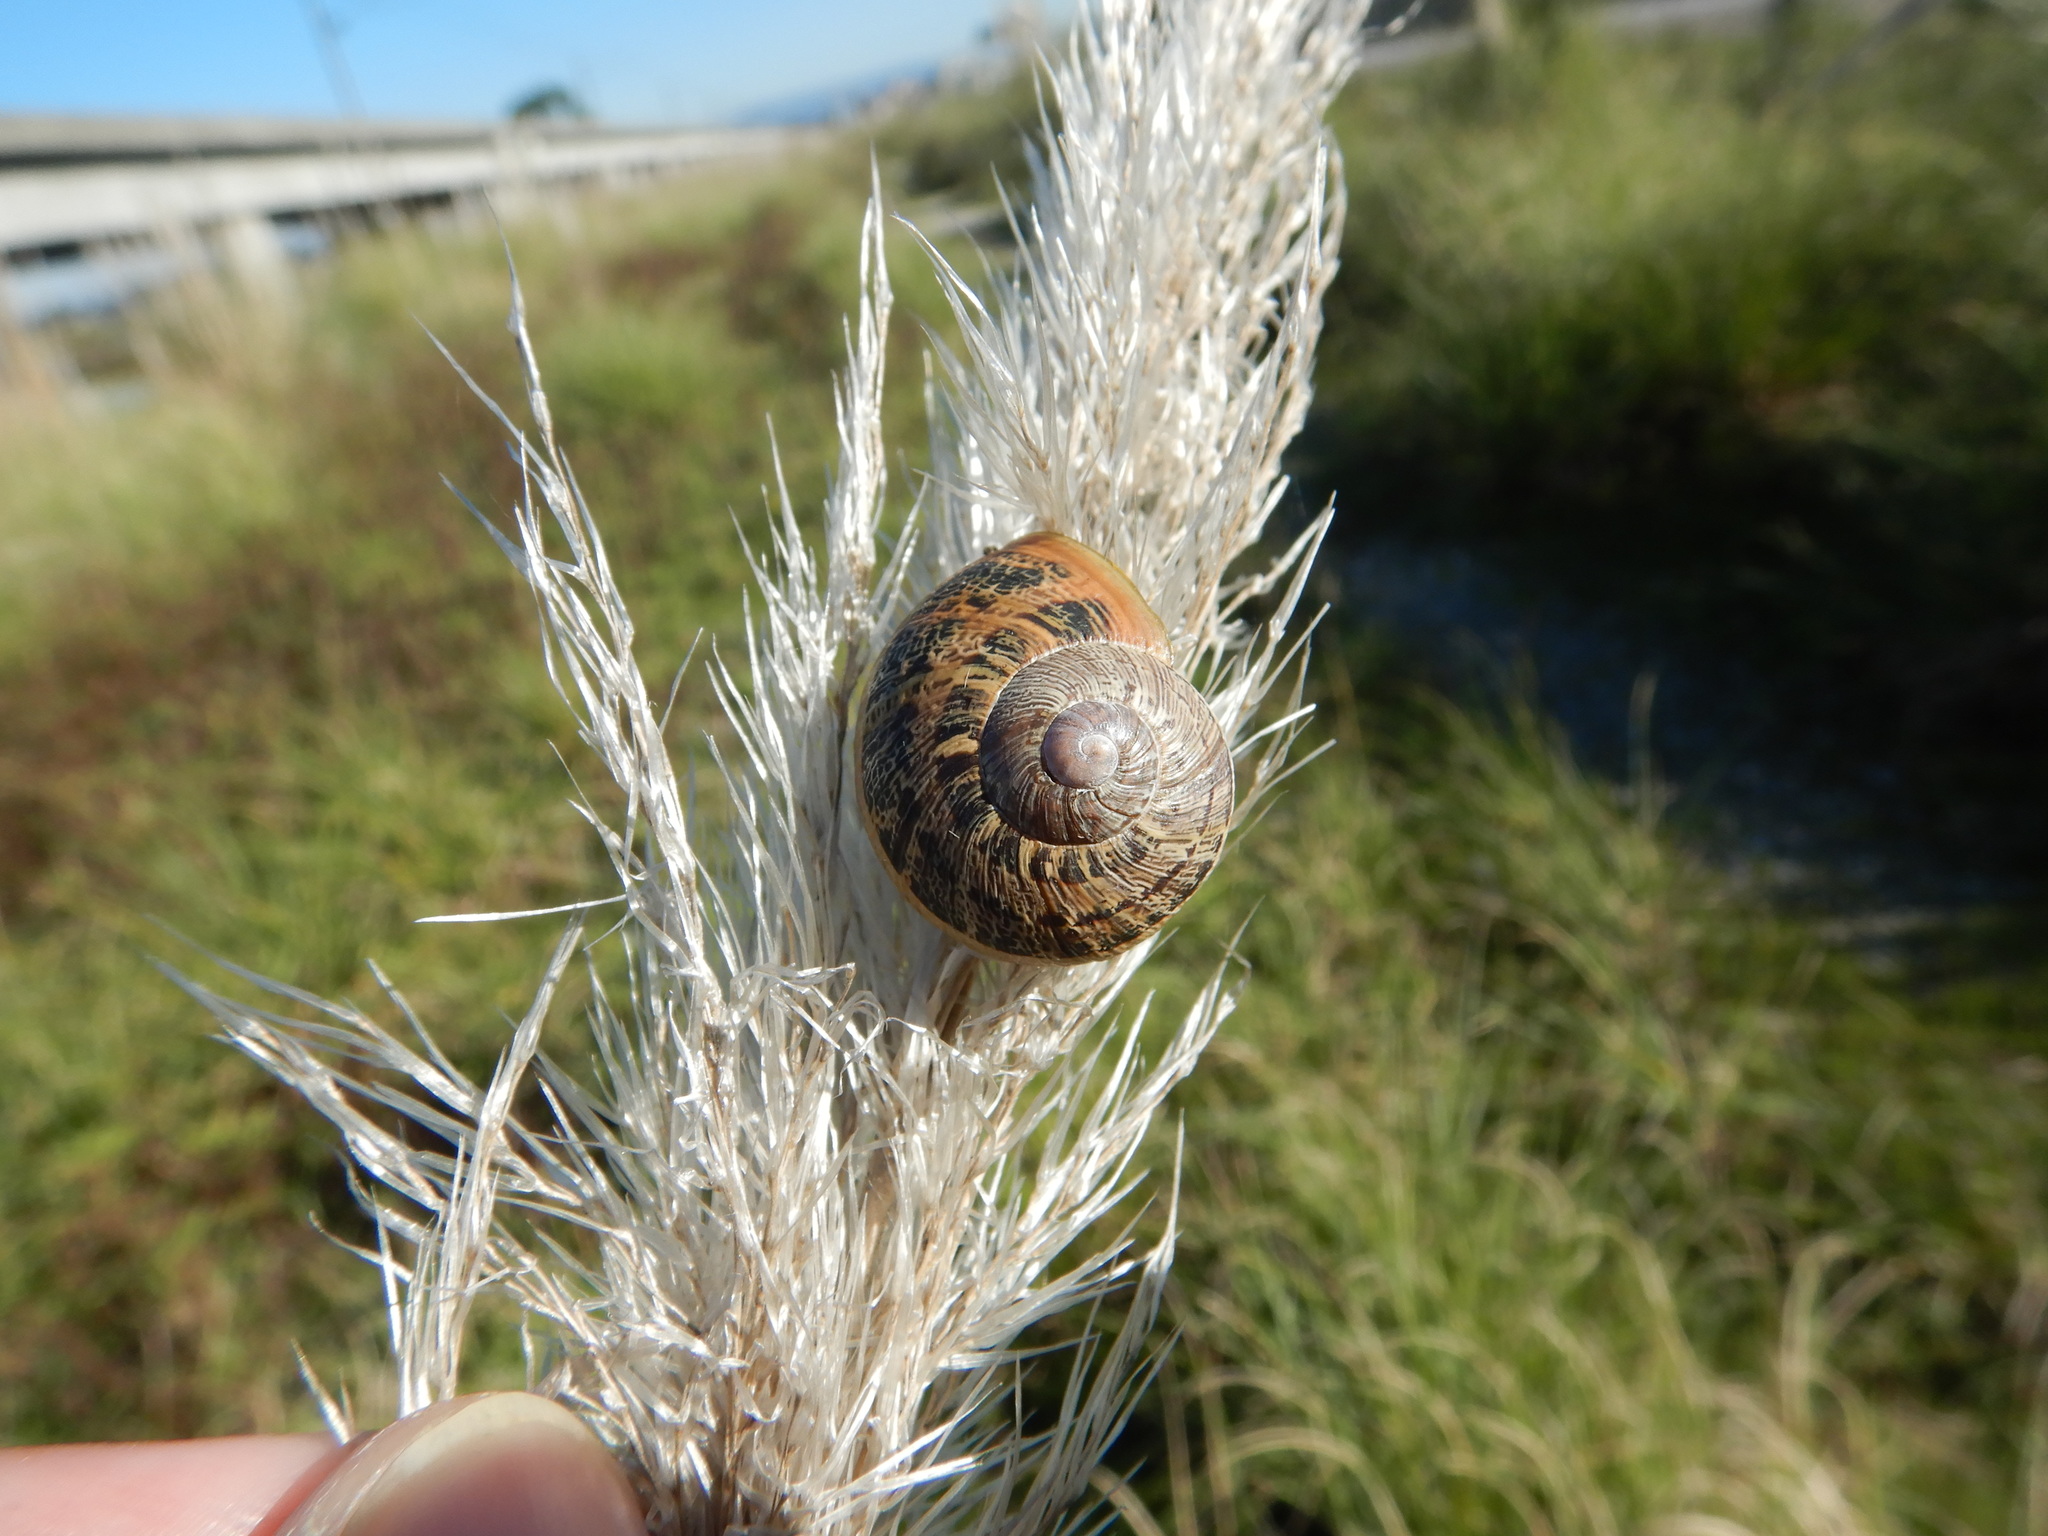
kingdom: Animalia
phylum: Mollusca
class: Gastropoda
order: Stylommatophora
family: Helicidae
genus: Cornu
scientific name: Cornu aspersum
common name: Brown garden snail
